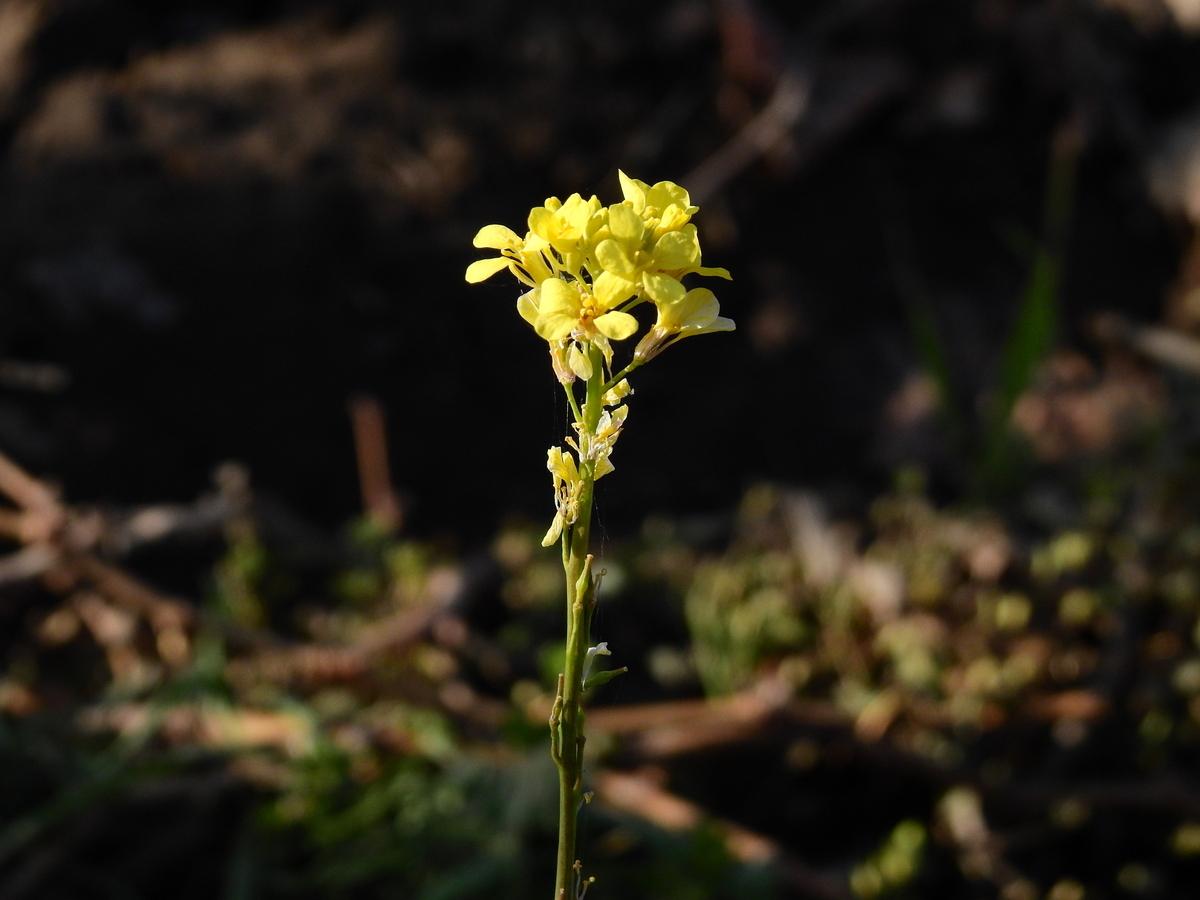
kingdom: Plantae
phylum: Tracheophyta
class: Magnoliopsida
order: Brassicales
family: Brassicaceae
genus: Rapistrum
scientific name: Rapistrum rugosum
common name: Annual bastardcabbage
